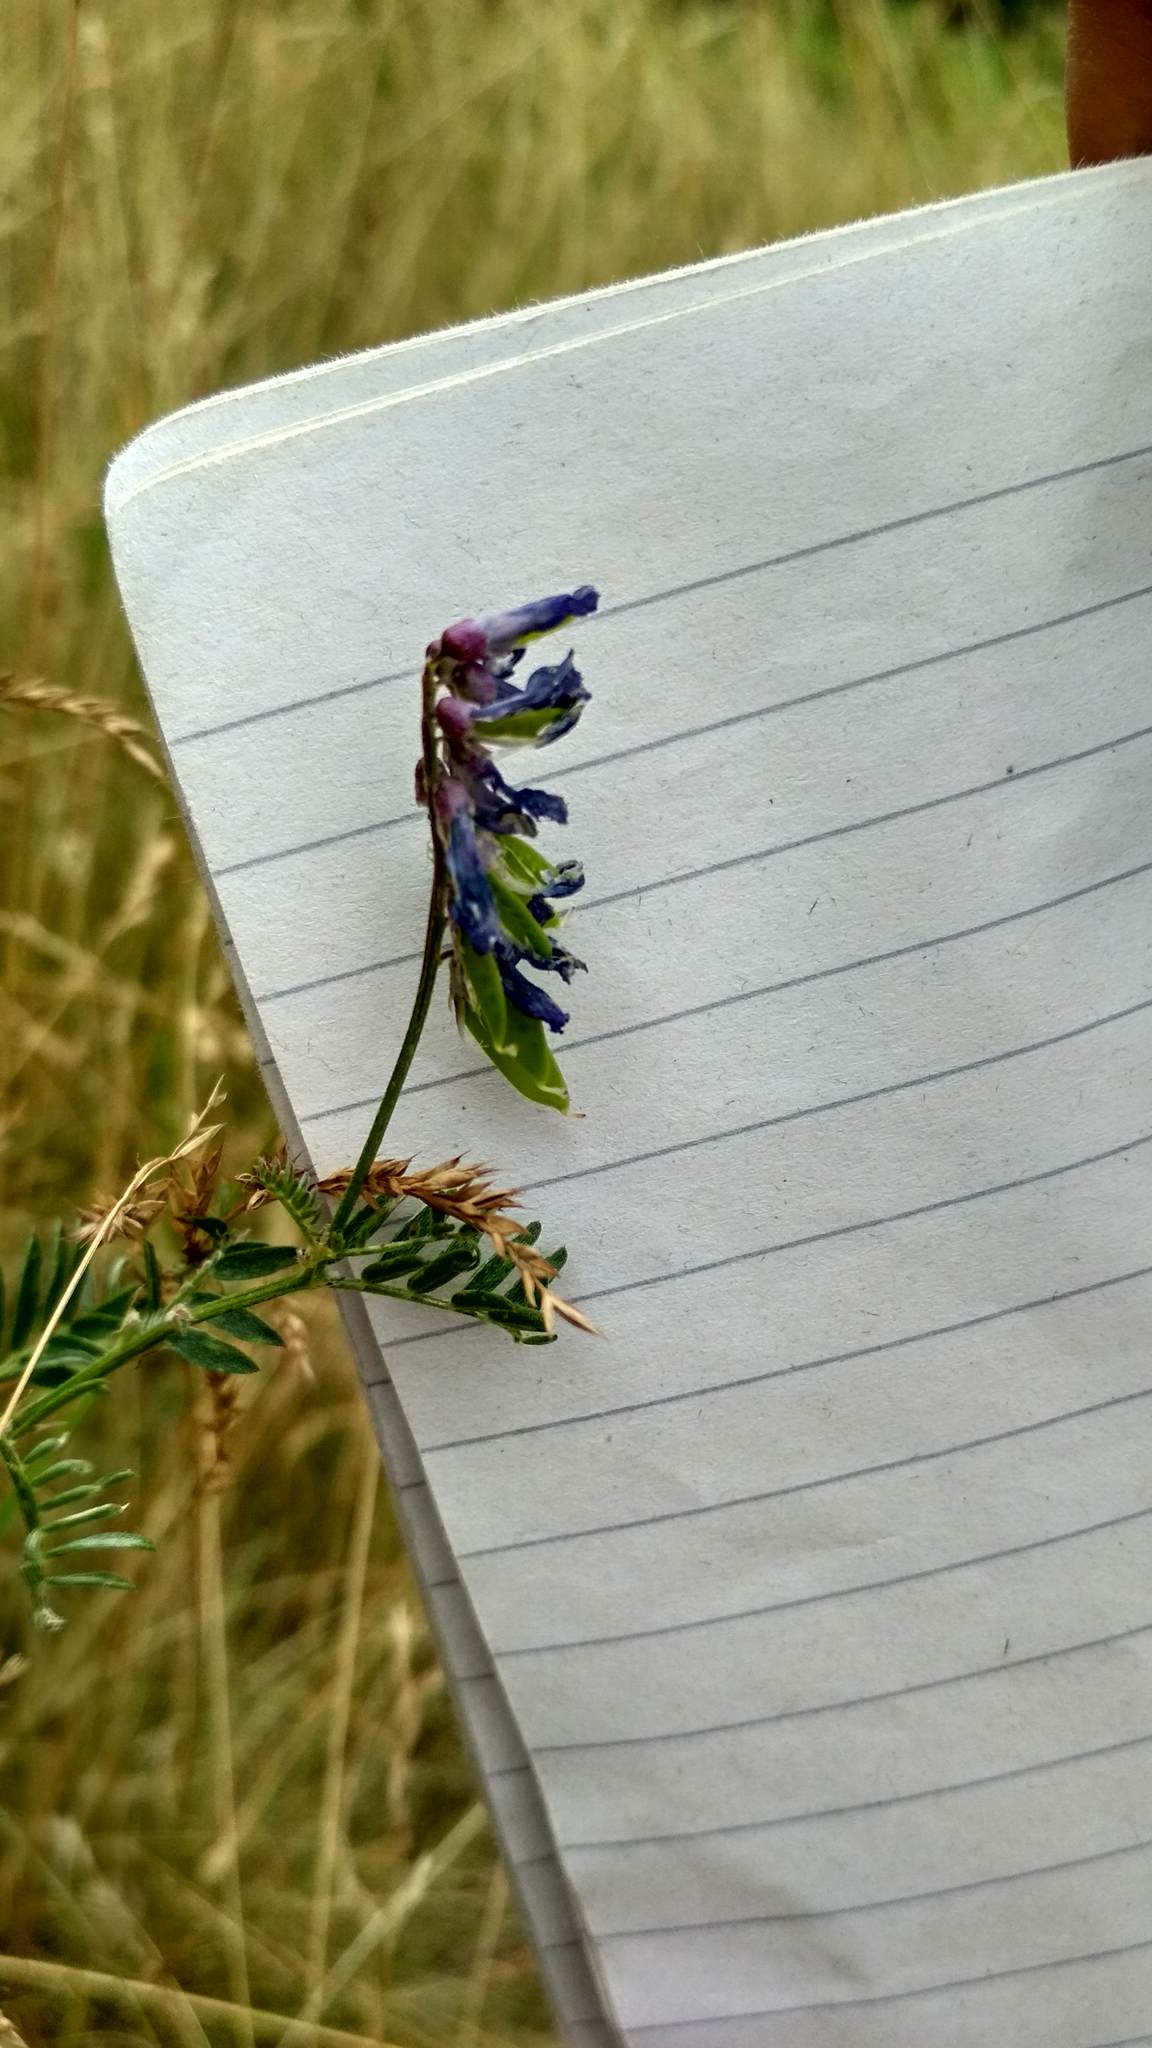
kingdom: Plantae
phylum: Tracheophyta
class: Magnoliopsida
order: Fabales
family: Fabaceae
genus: Vicia
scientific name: Vicia cracca
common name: Bird vetch
